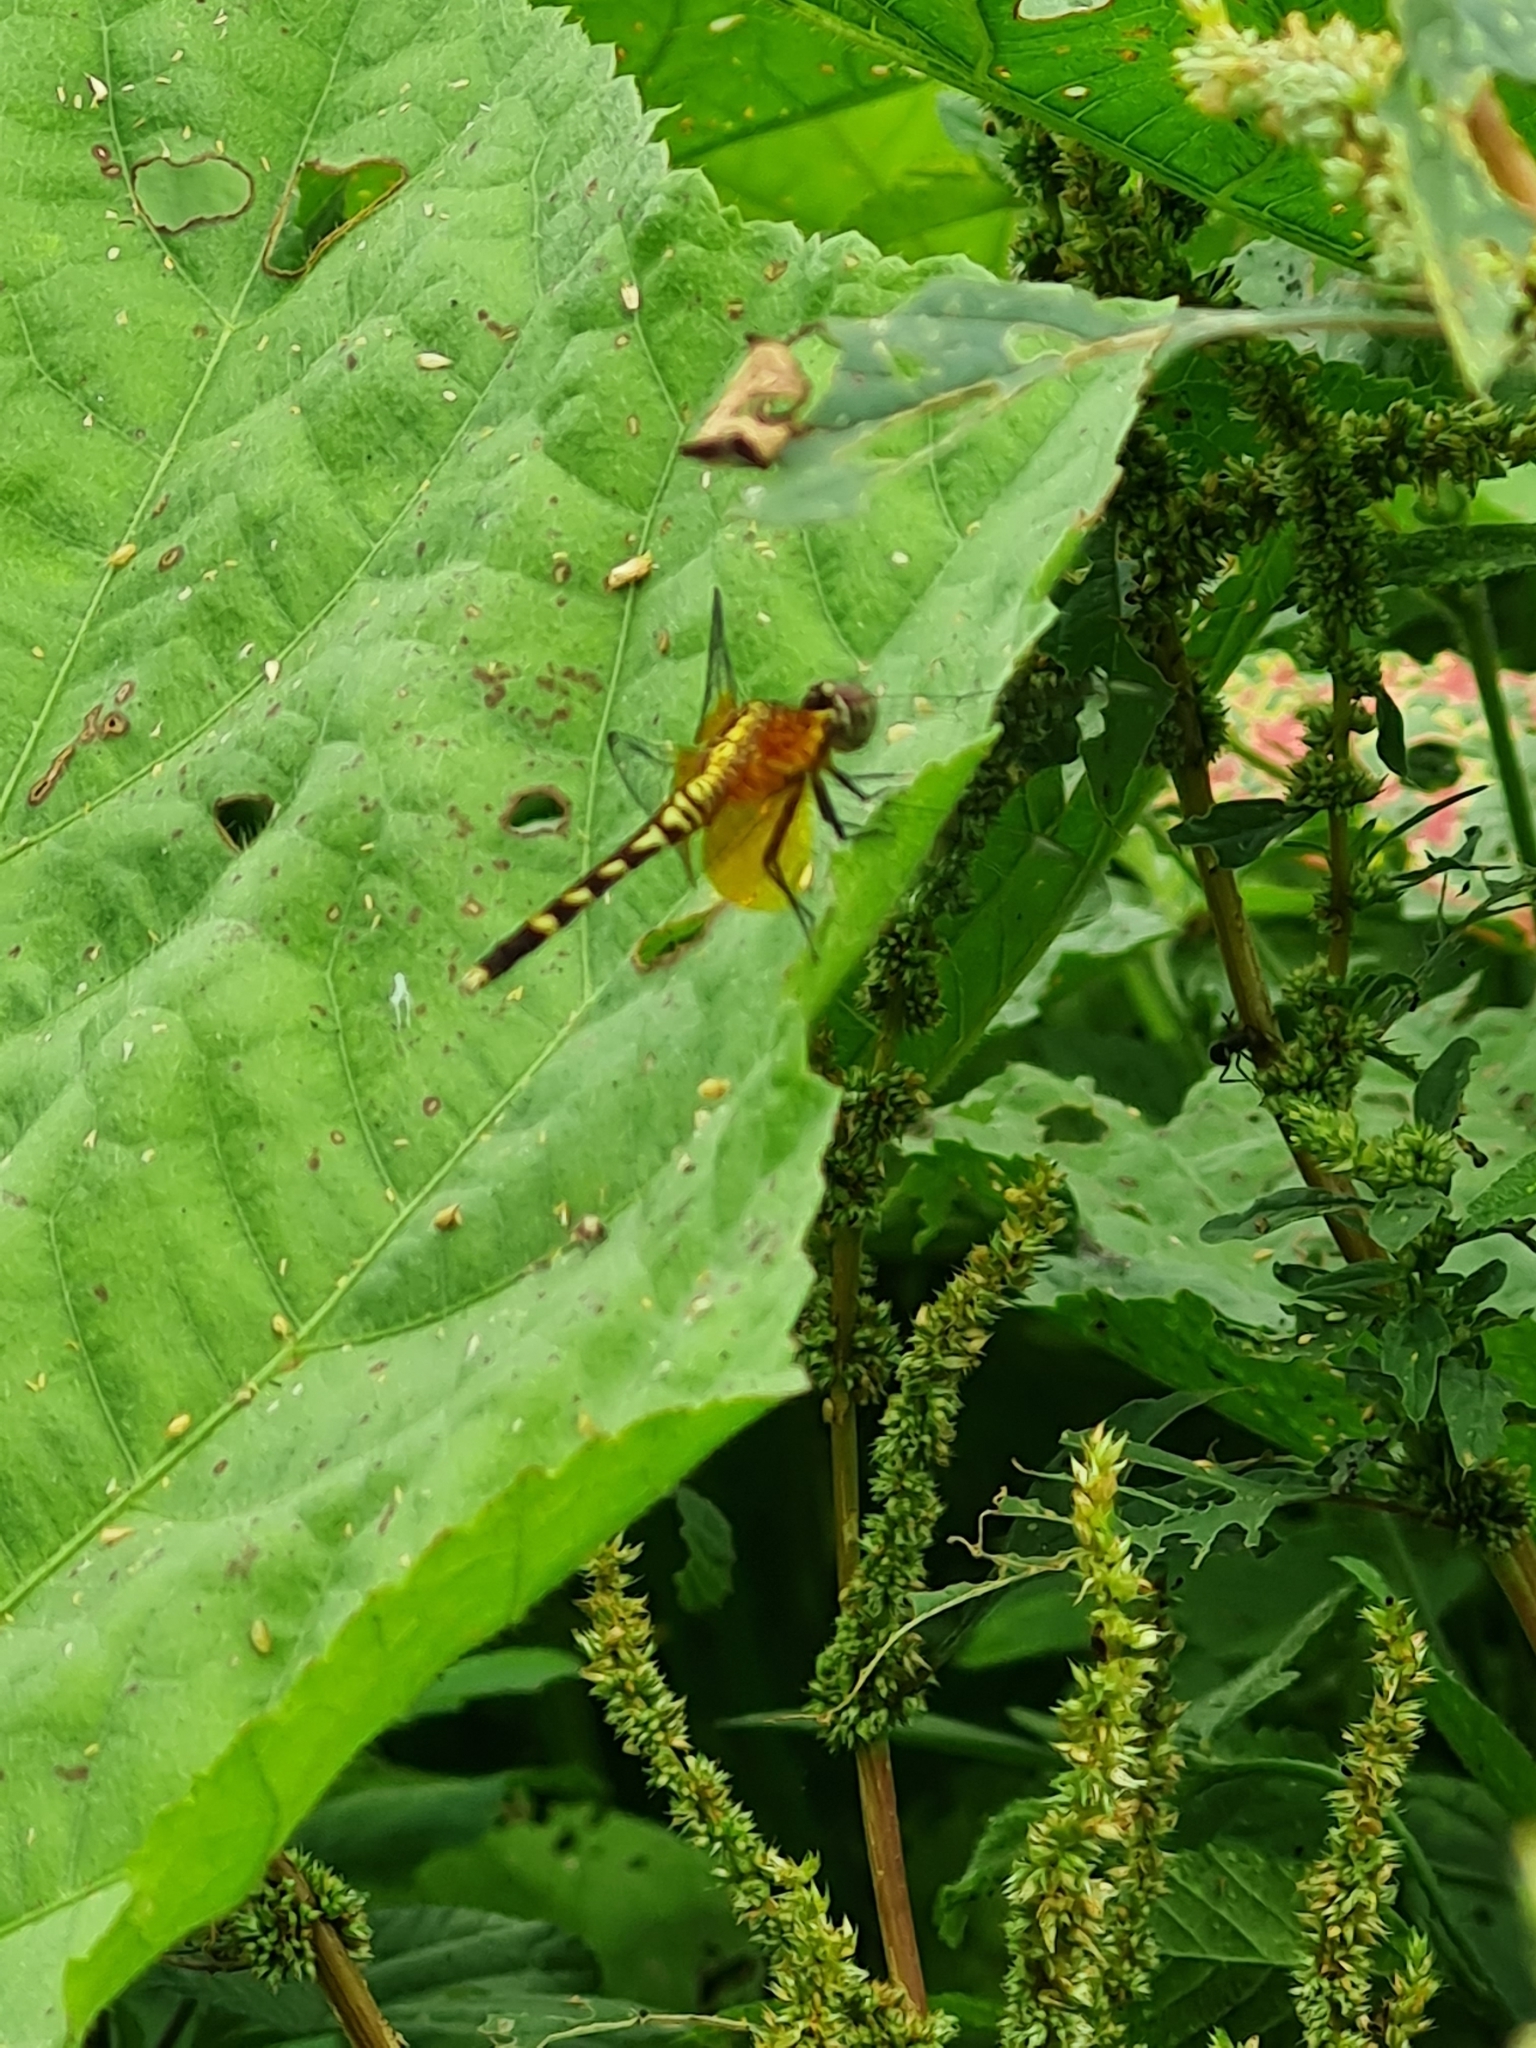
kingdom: Animalia
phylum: Arthropoda
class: Insecta
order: Odonata
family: Libellulidae
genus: Erythrodiplax
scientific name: Erythrodiplax fervida
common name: Red-mantled dragonlet
